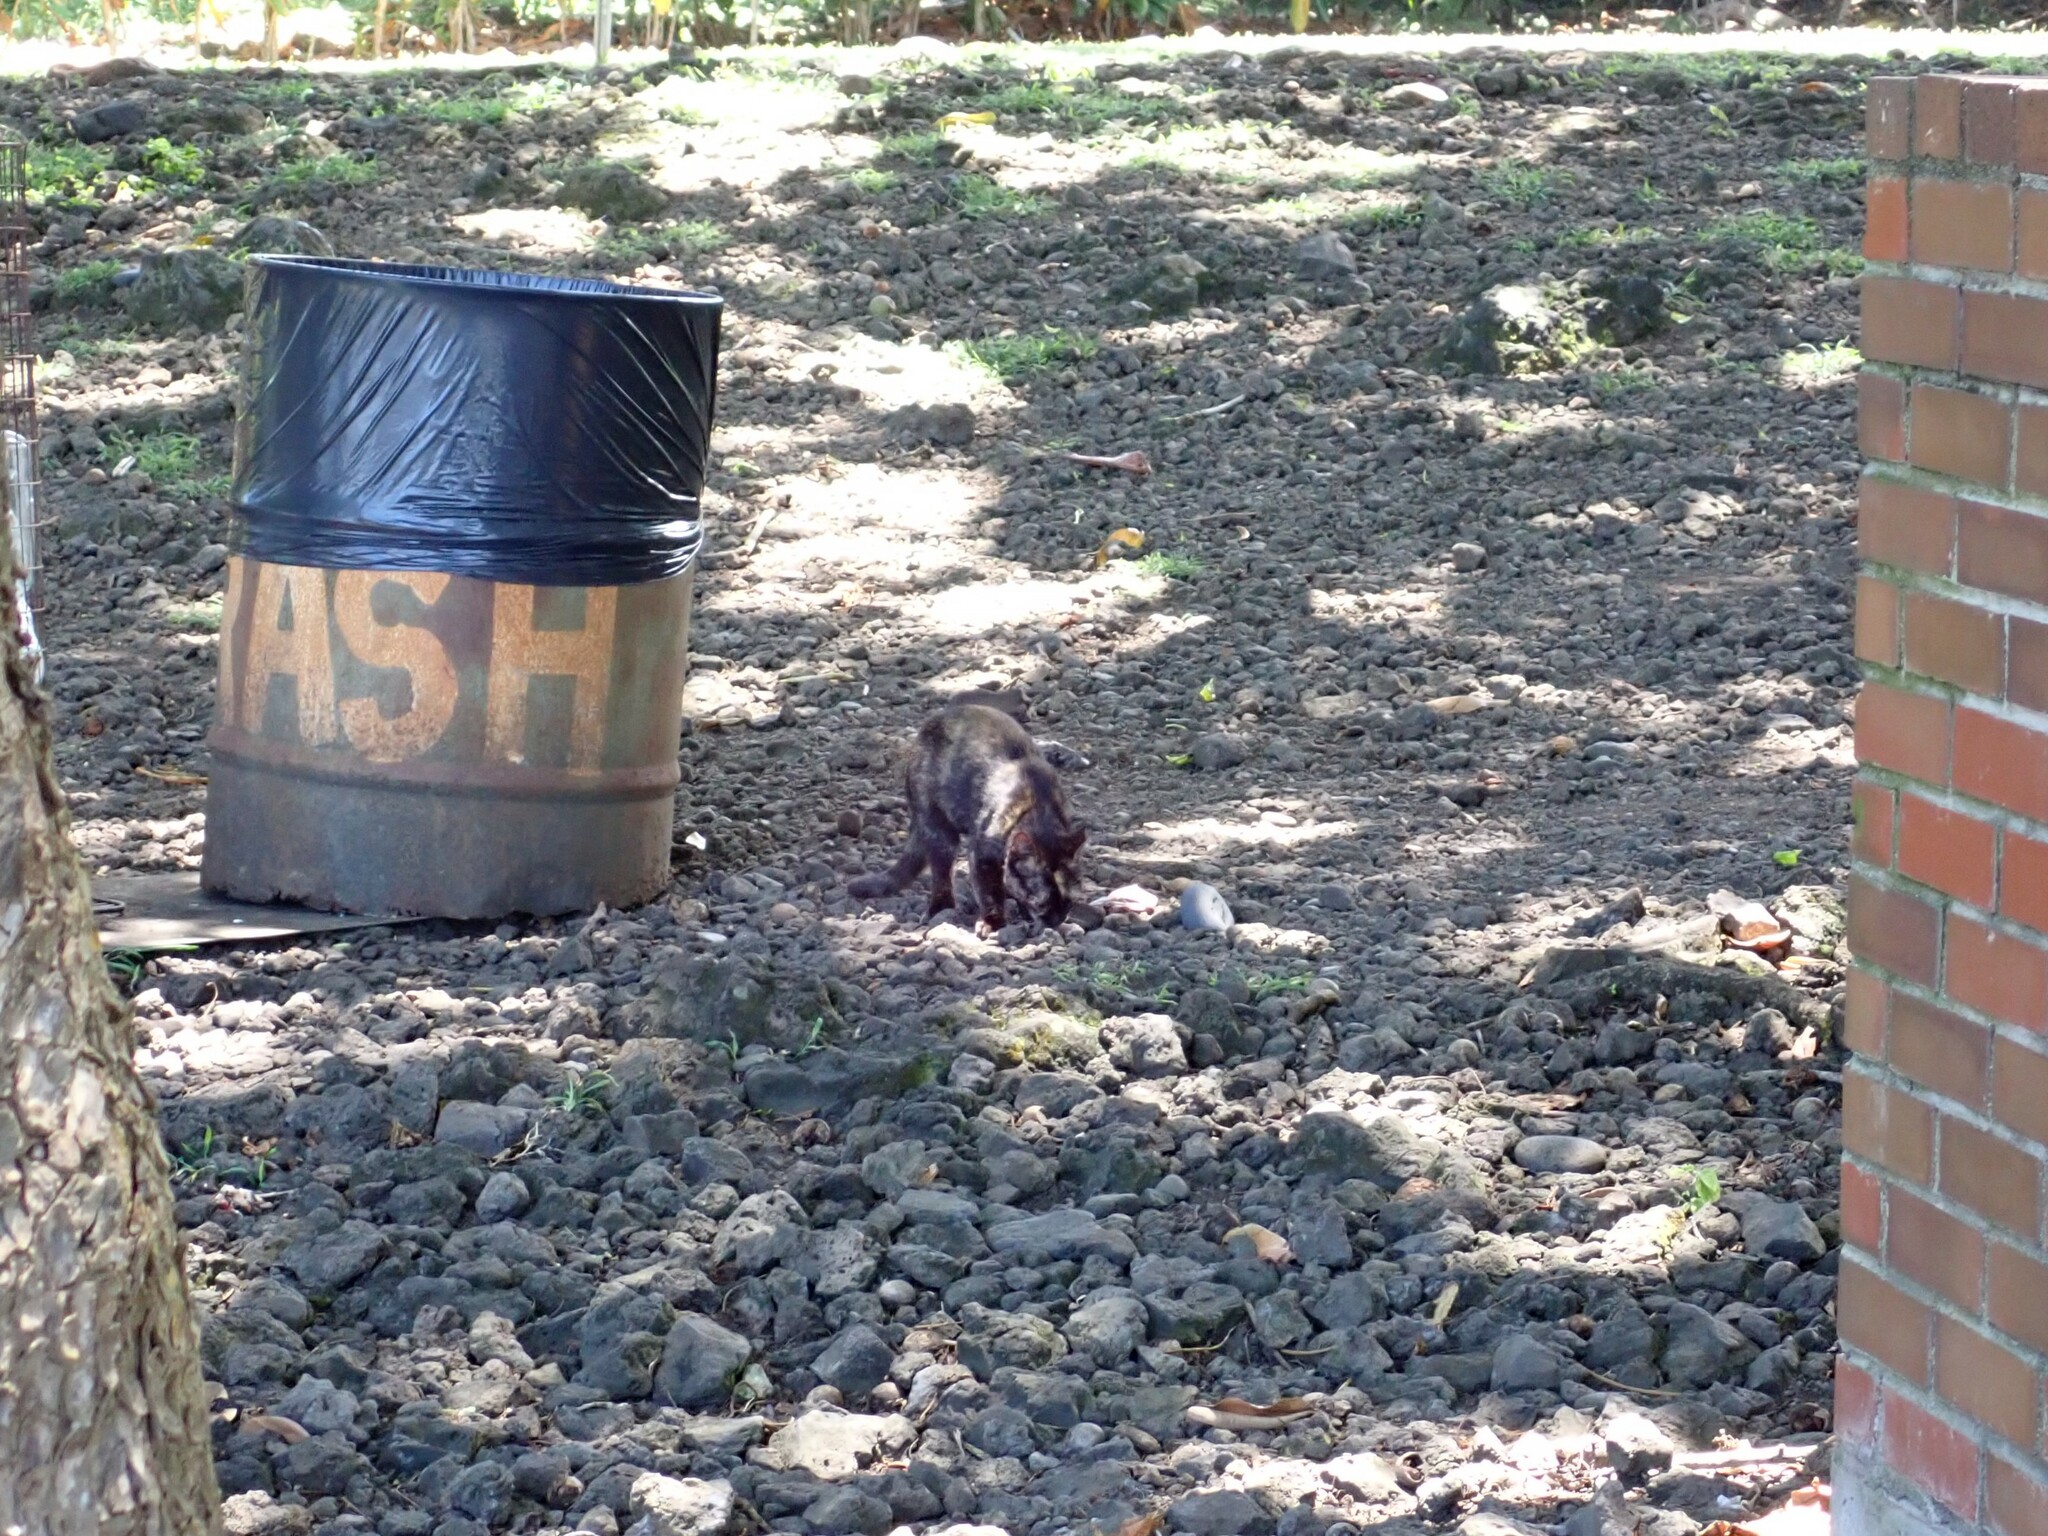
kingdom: Animalia
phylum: Chordata
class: Mammalia
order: Carnivora
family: Felidae
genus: Felis
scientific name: Felis catus
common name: Domestic cat
